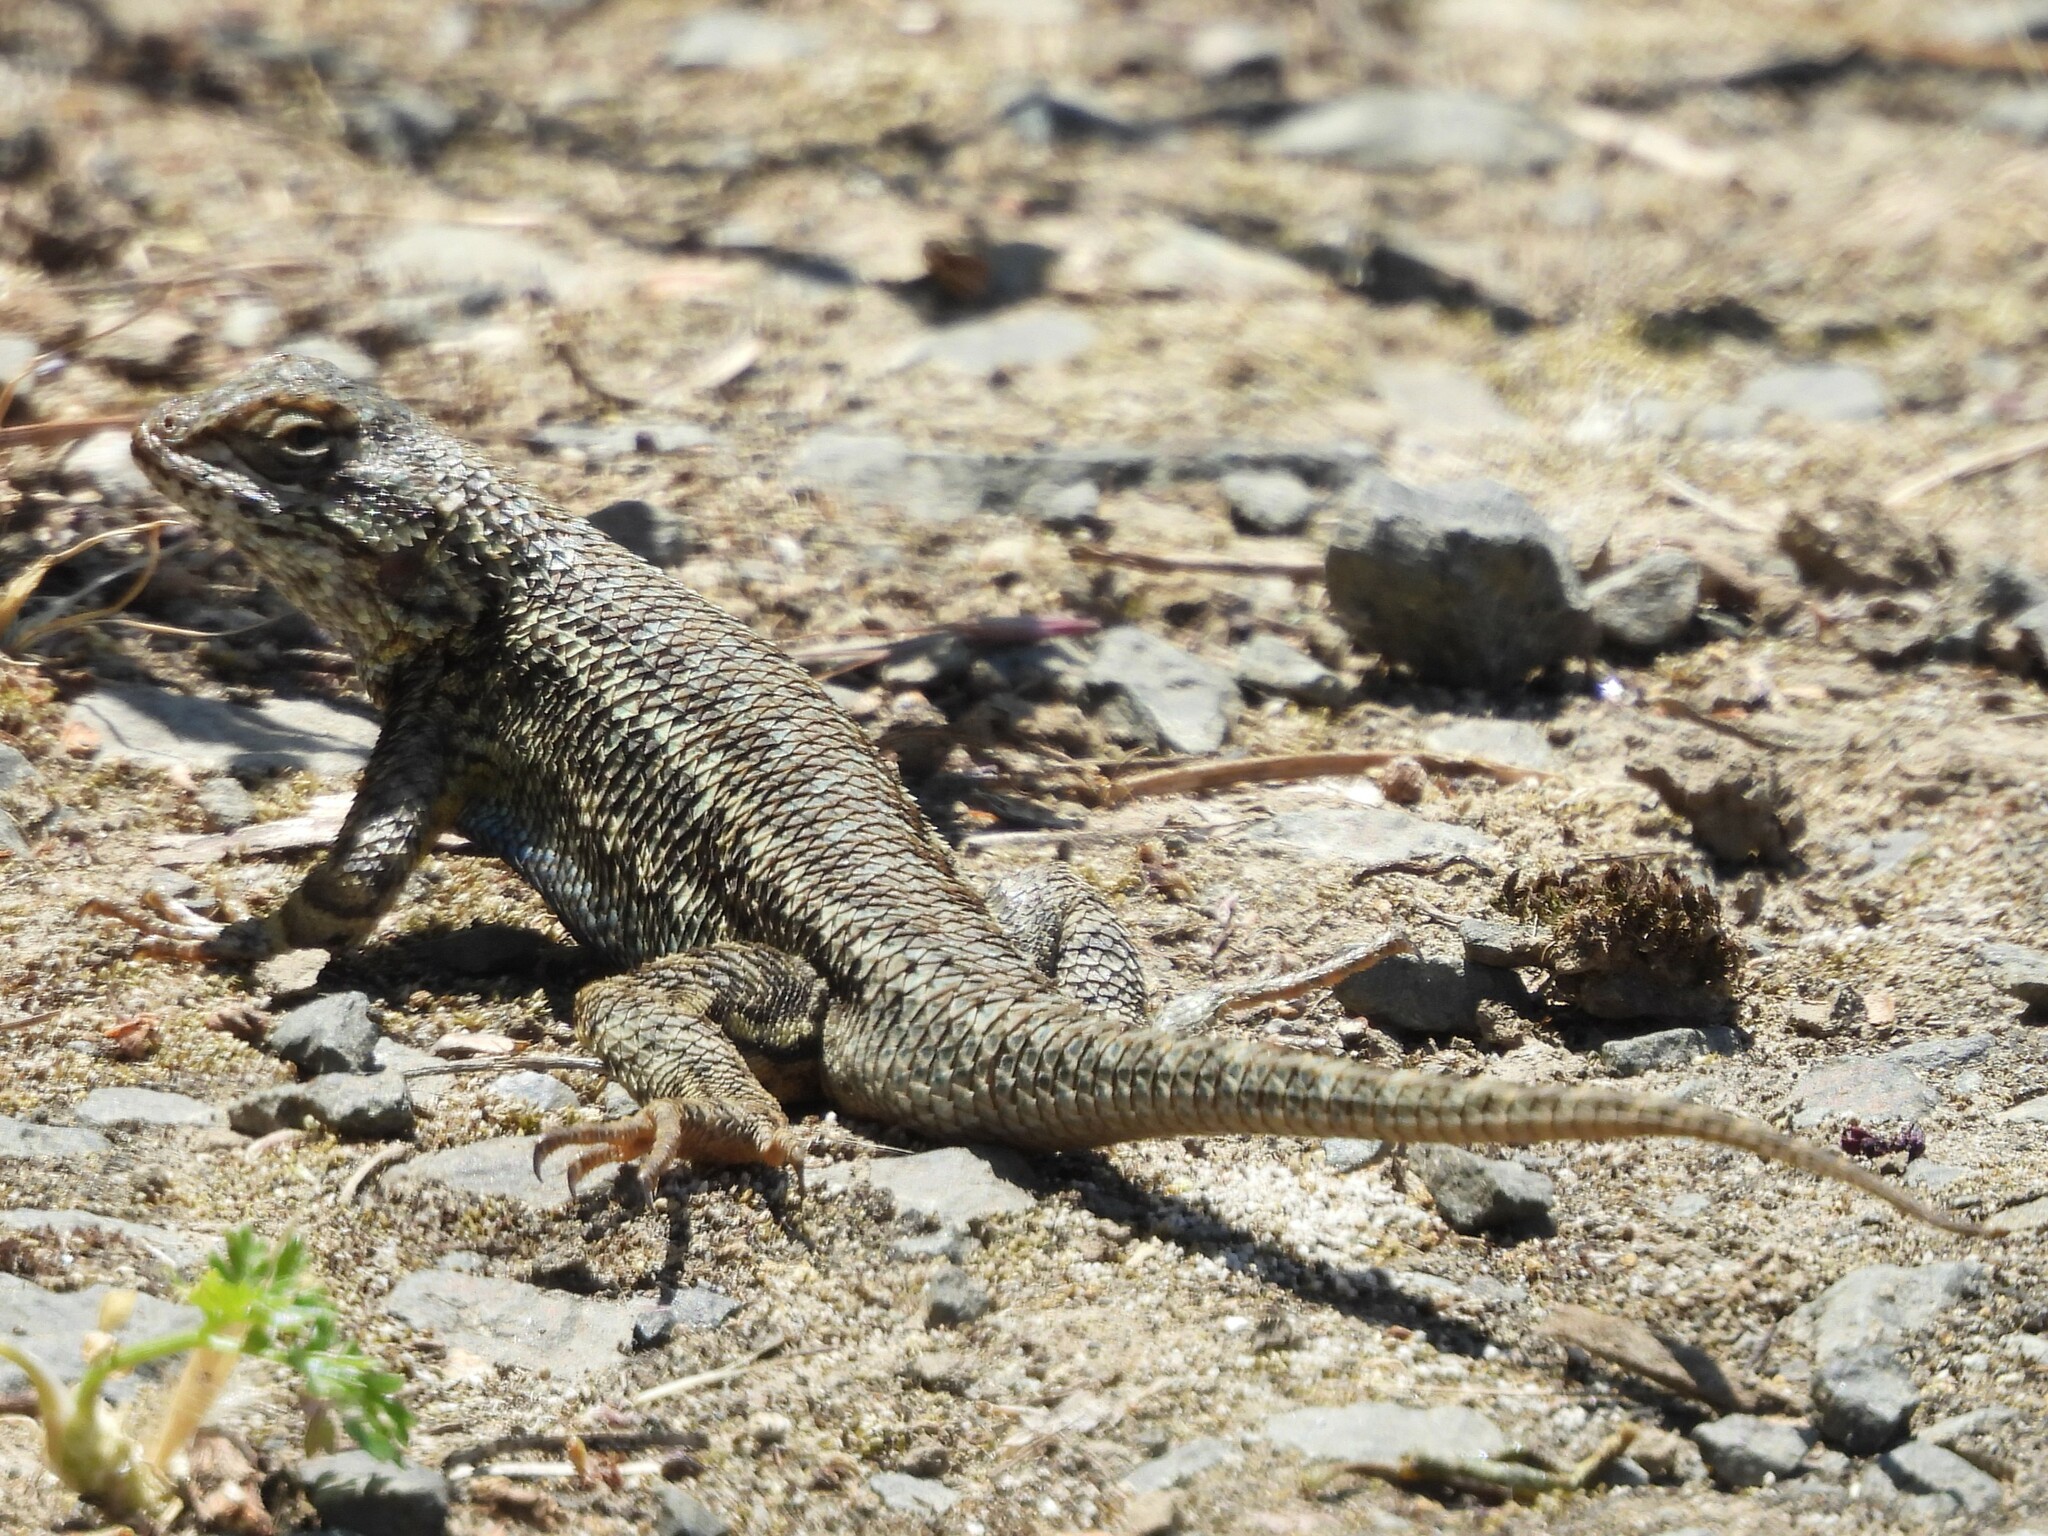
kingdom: Animalia
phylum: Chordata
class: Squamata
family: Phrynosomatidae
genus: Sceloporus
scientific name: Sceloporus occidentalis
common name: Western fence lizard
